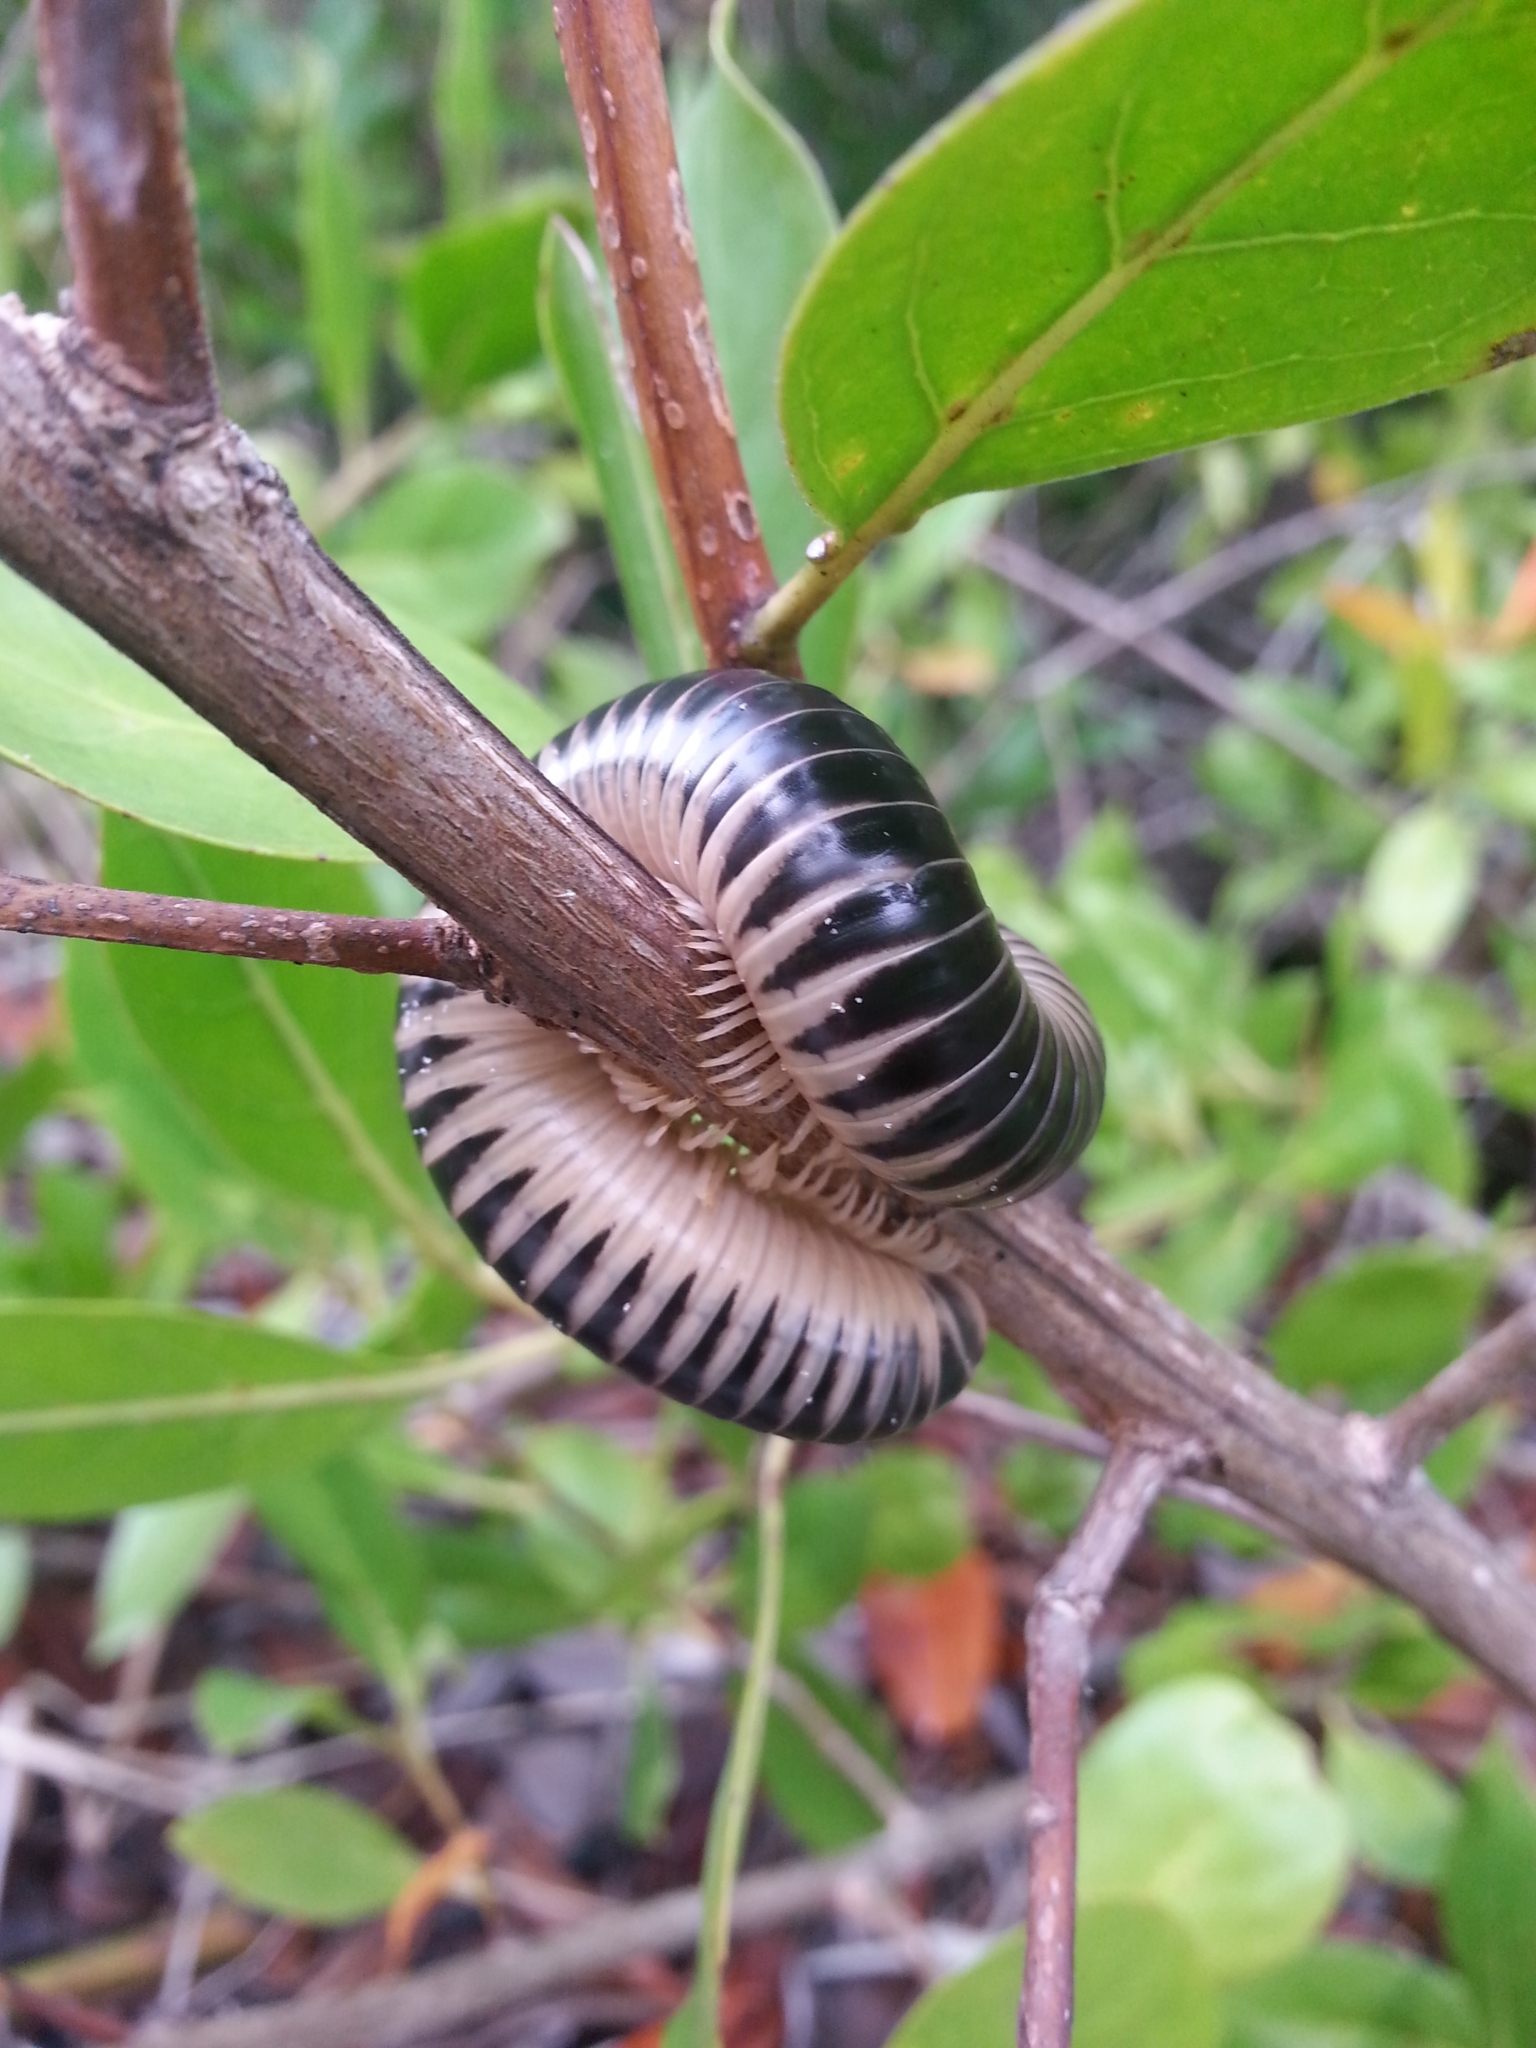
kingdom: Animalia
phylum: Arthropoda
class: Diplopoda
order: Spirobolida
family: Spirobolidae
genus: Chicobolus
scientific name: Chicobolus spinigerus
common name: Florida ivory millipede
